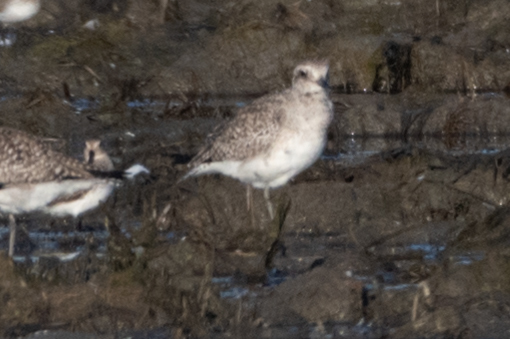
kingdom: Animalia
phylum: Chordata
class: Aves
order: Charadriiformes
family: Charadriidae
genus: Pluvialis
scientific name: Pluvialis squatarola
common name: Grey plover
